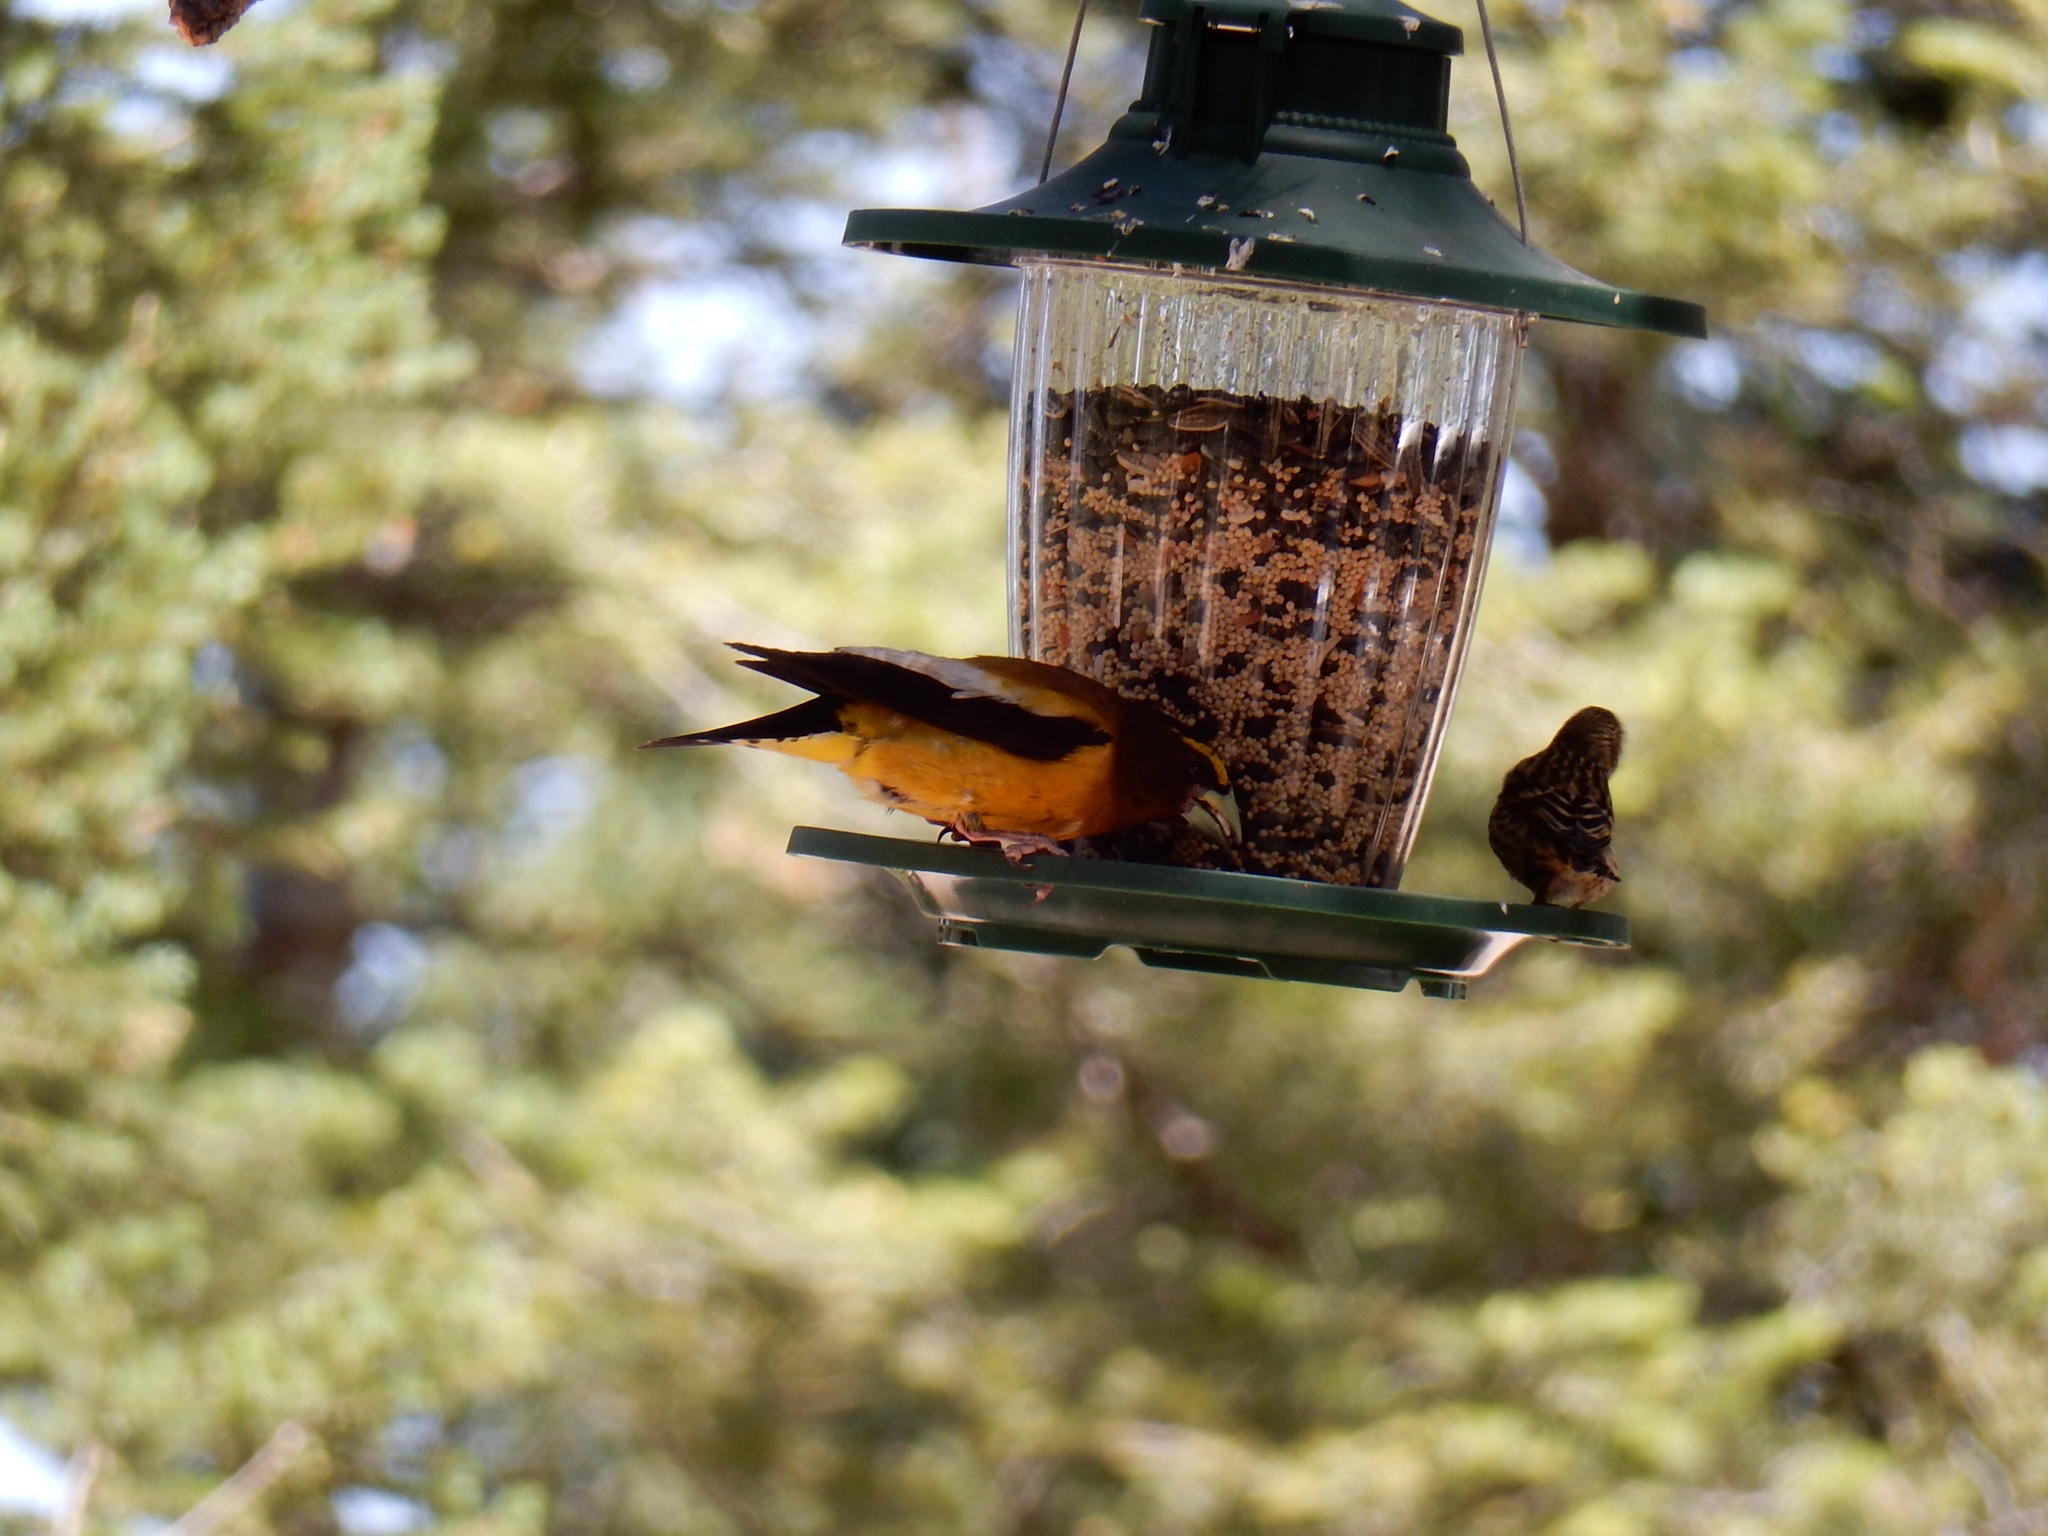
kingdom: Animalia
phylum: Chordata
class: Aves
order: Passeriformes
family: Fringillidae
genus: Hesperiphona
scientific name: Hesperiphona vespertina
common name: Evening grosbeak
